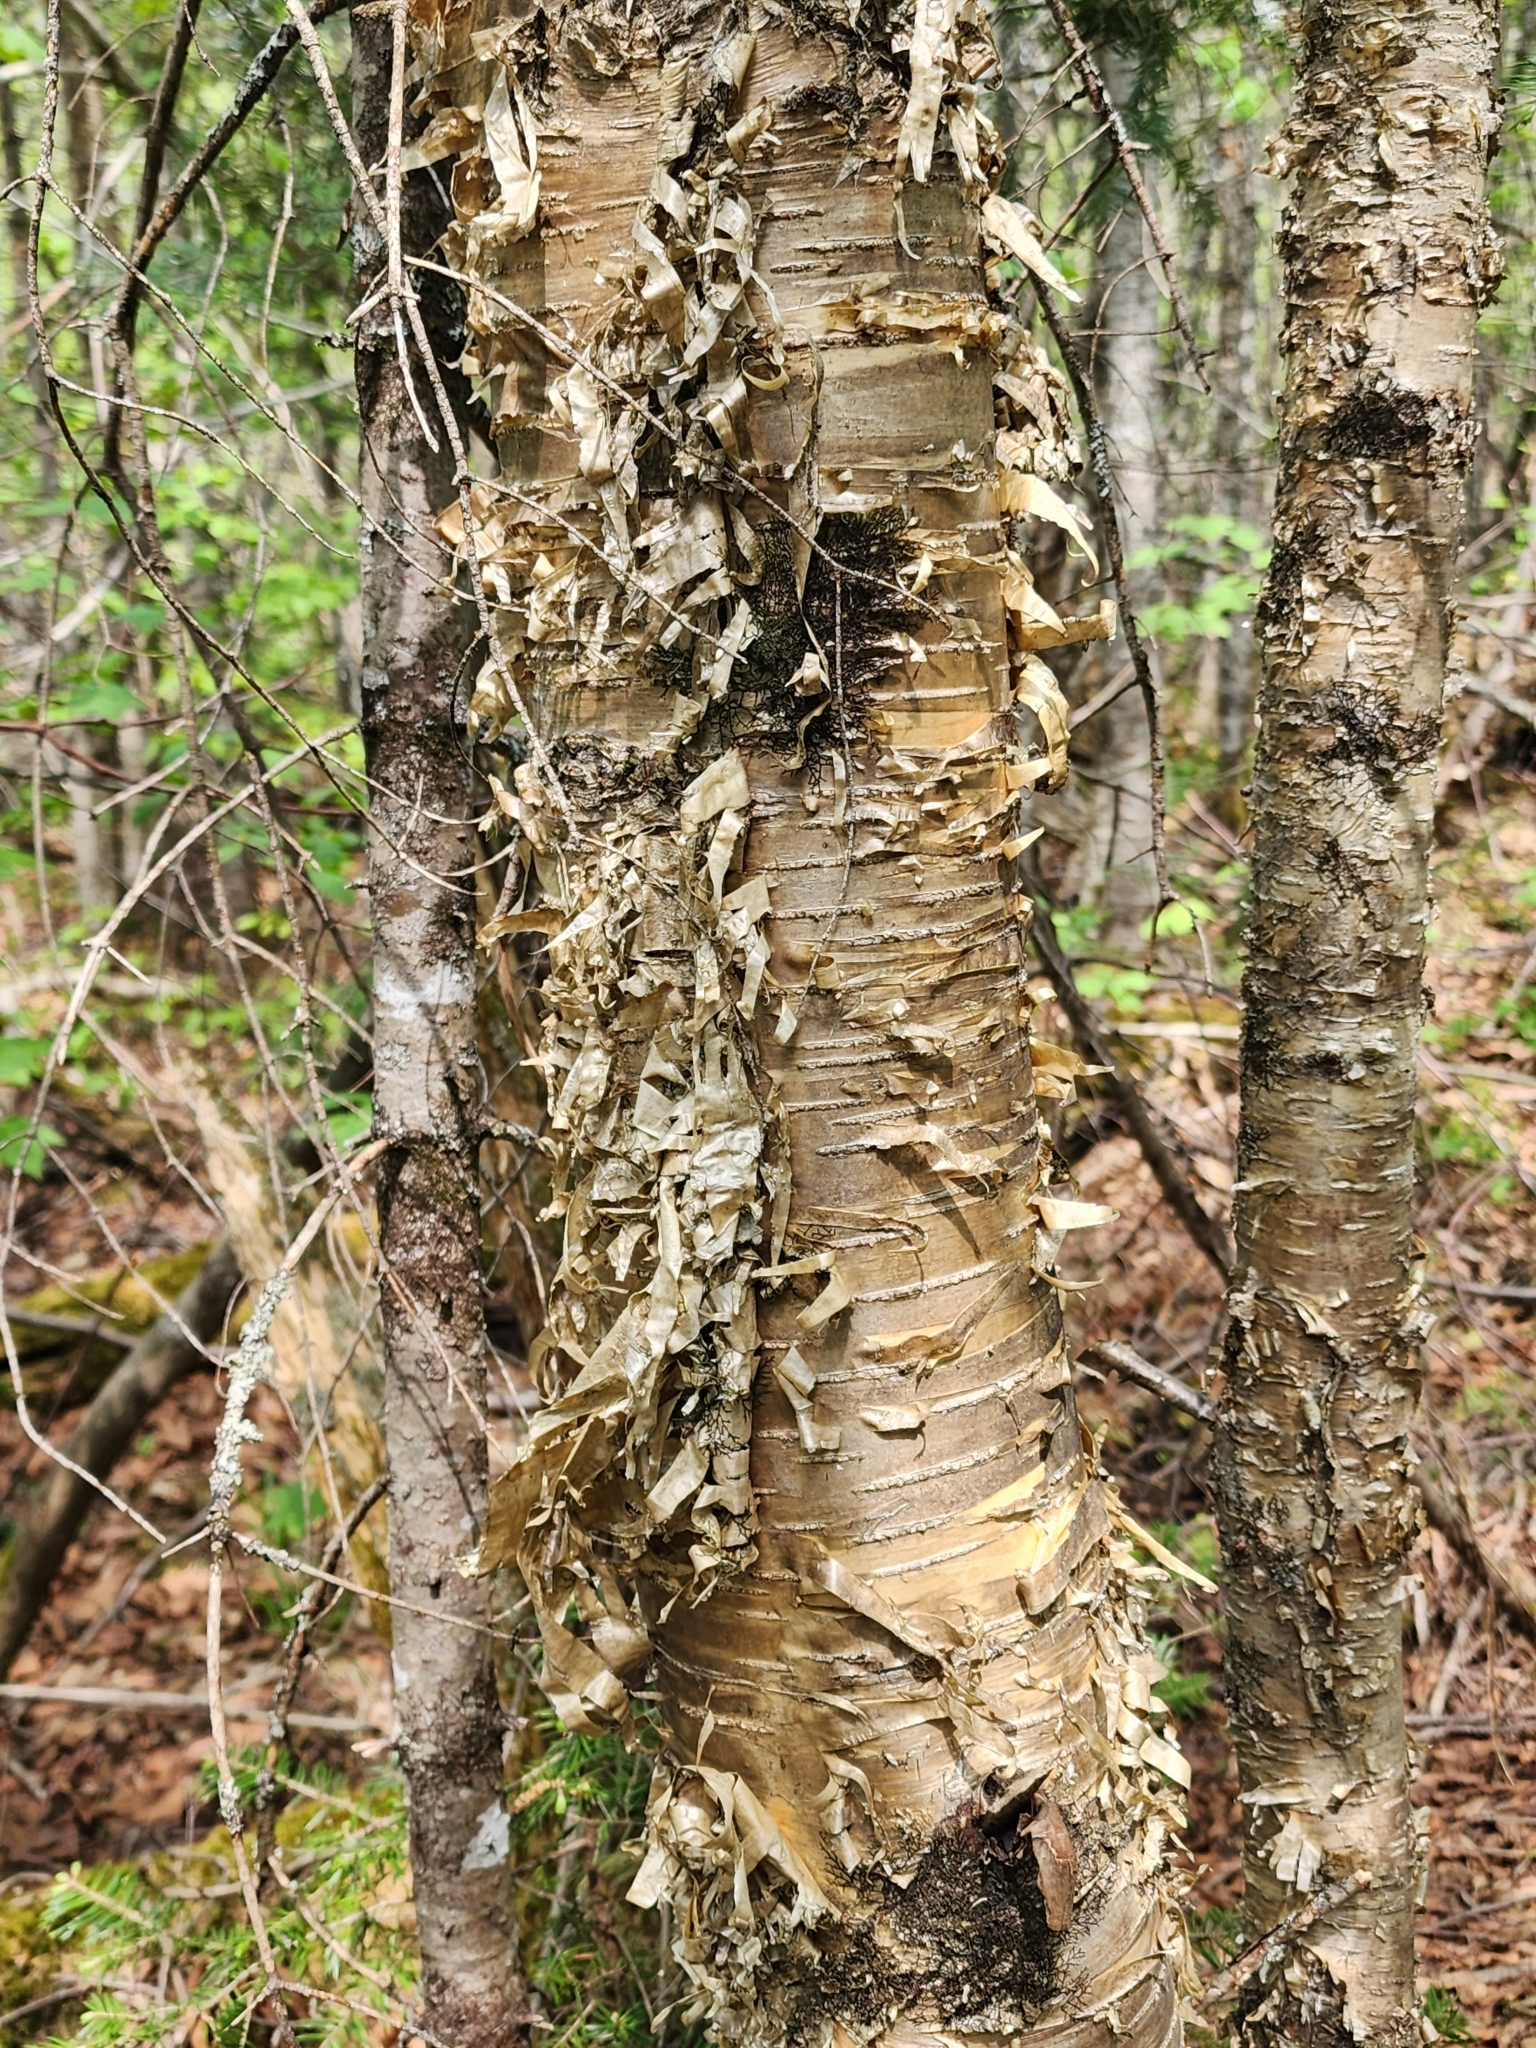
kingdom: Plantae
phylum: Tracheophyta
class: Magnoliopsida
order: Fagales
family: Betulaceae
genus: Betula
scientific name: Betula alleghaniensis
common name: Yellow birch
